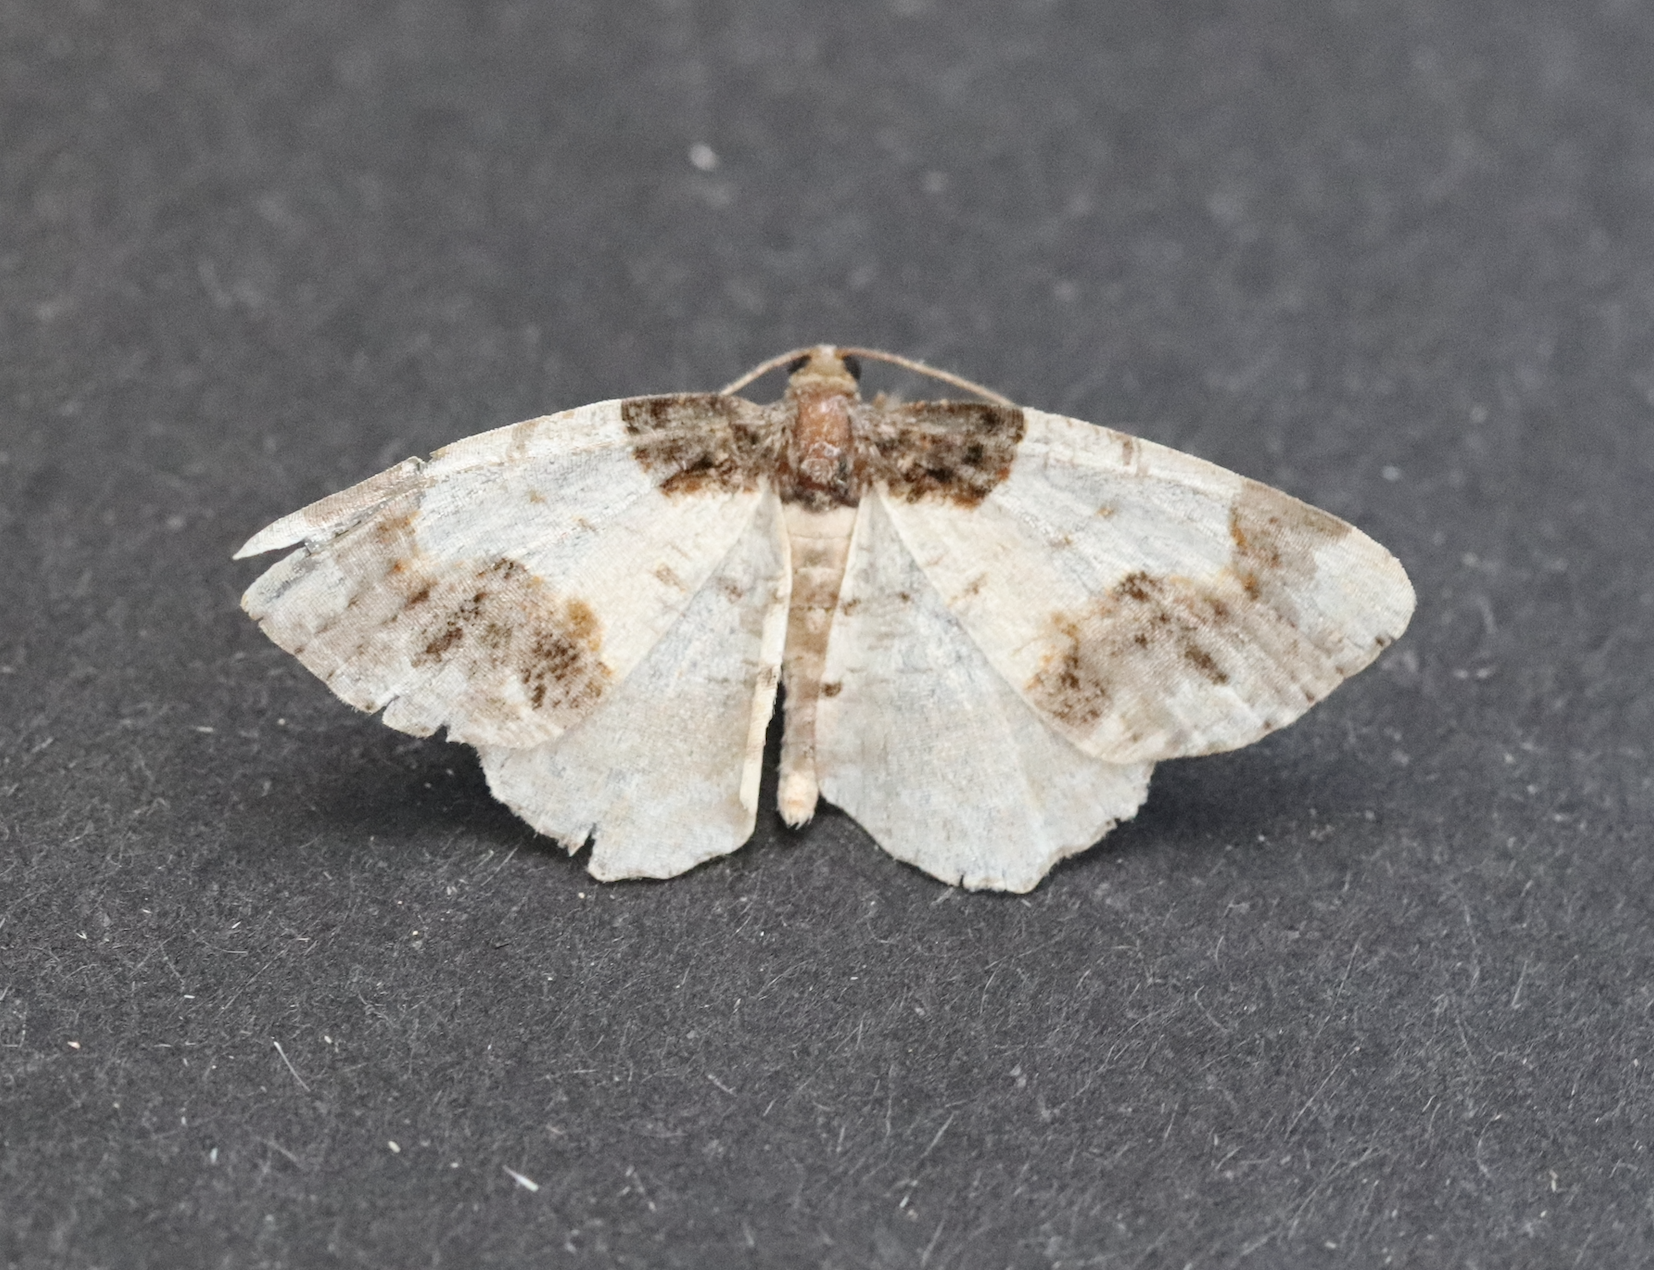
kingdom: Animalia
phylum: Arthropoda
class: Insecta
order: Lepidoptera
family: Geometridae
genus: Ligdia
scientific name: Ligdia adustata
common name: Scorched carpet
